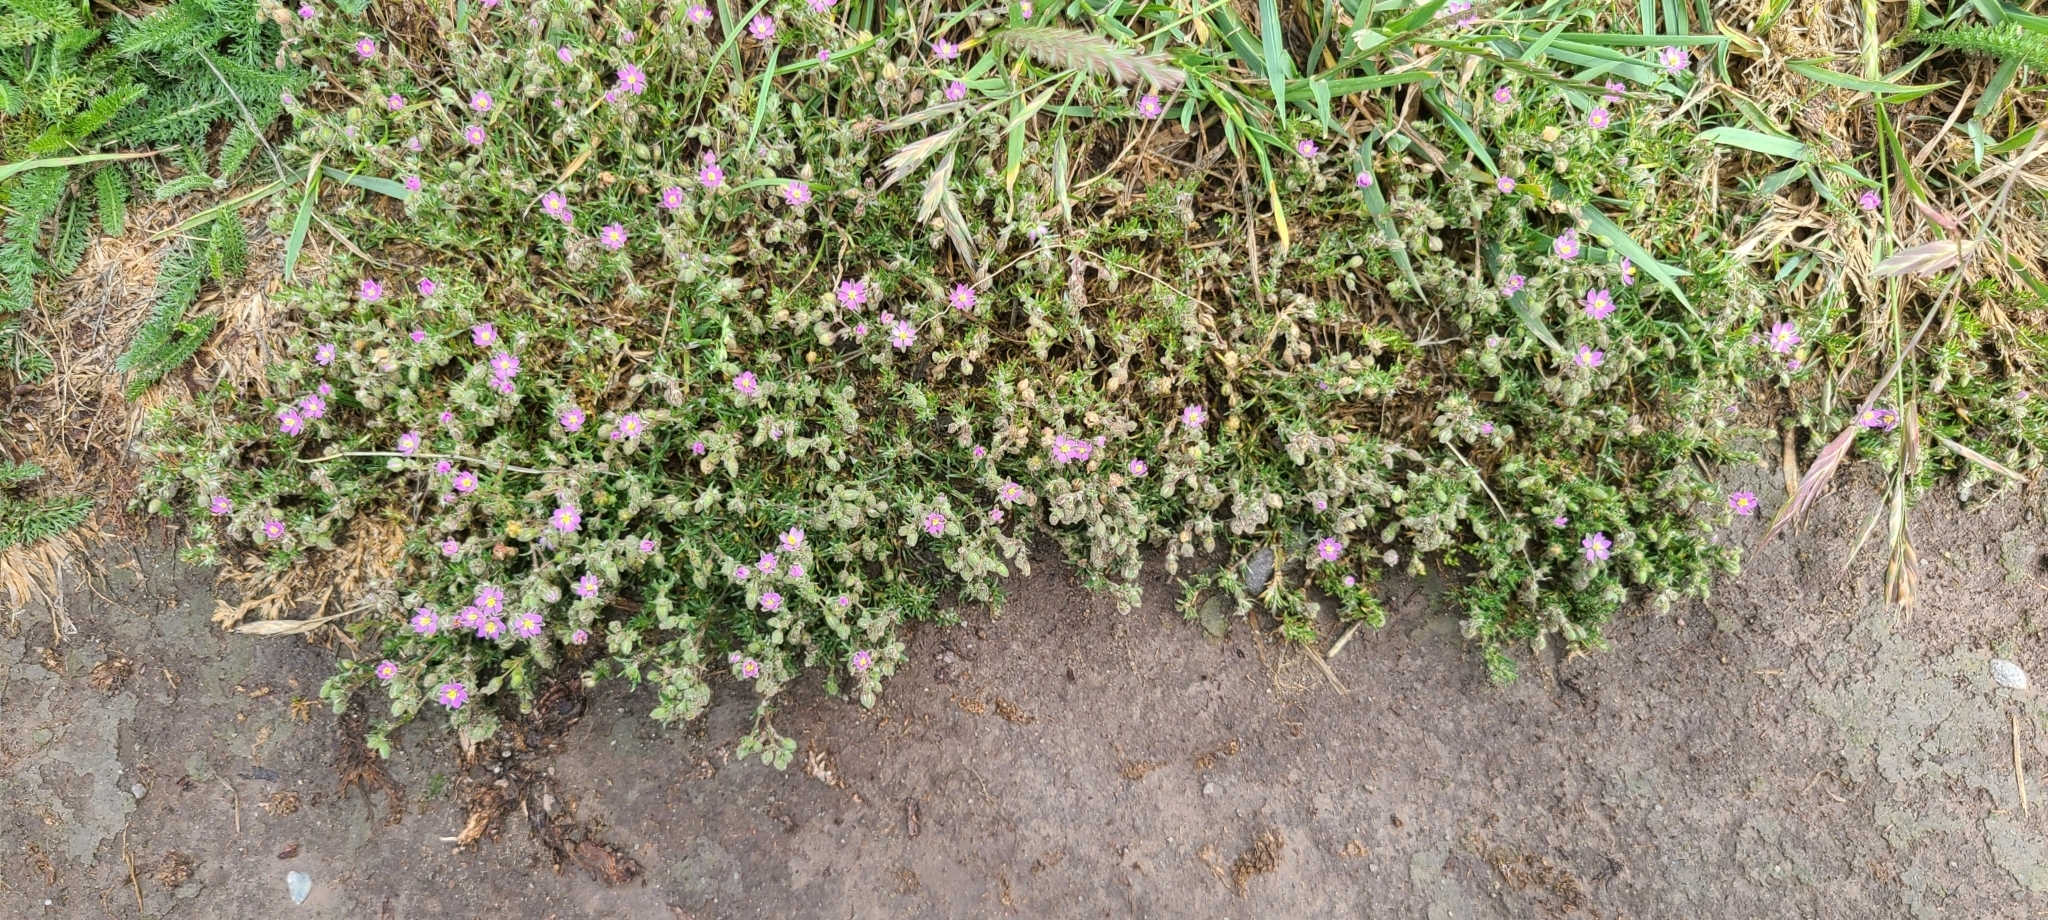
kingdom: Plantae
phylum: Tracheophyta
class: Magnoliopsida
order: Caryophyllales
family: Caryophyllaceae
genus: Spergularia
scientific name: Spergularia rubra
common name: Red sand-spurrey
